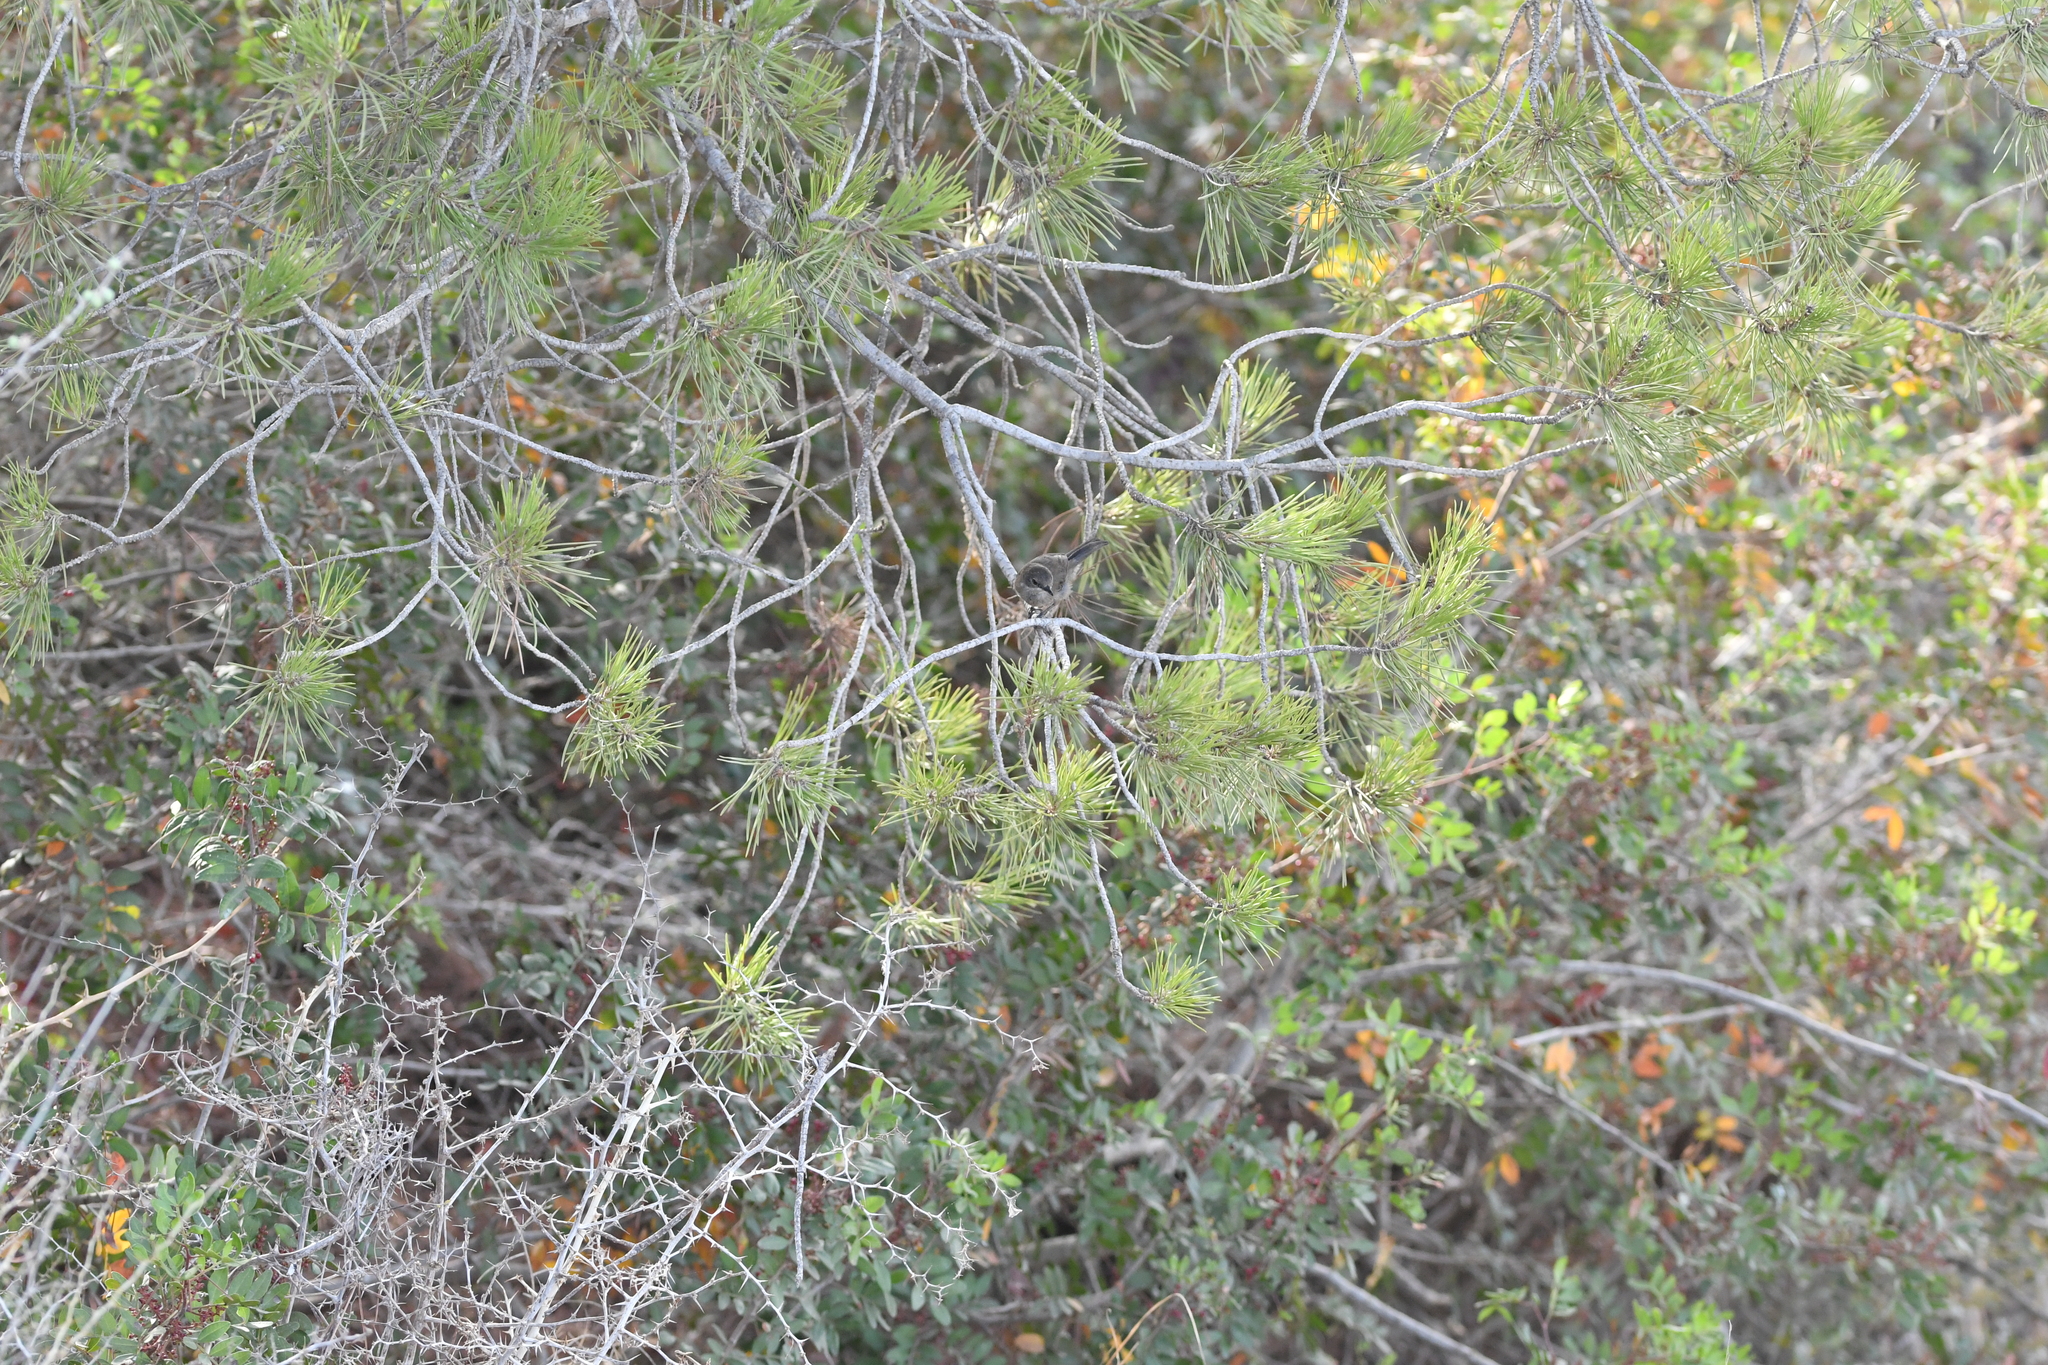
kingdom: Animalia
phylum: Chordata
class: Aves
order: Passeriformes
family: Sylviidae
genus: Curruca
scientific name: Curruca melanocephala
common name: Sardinian warbler
